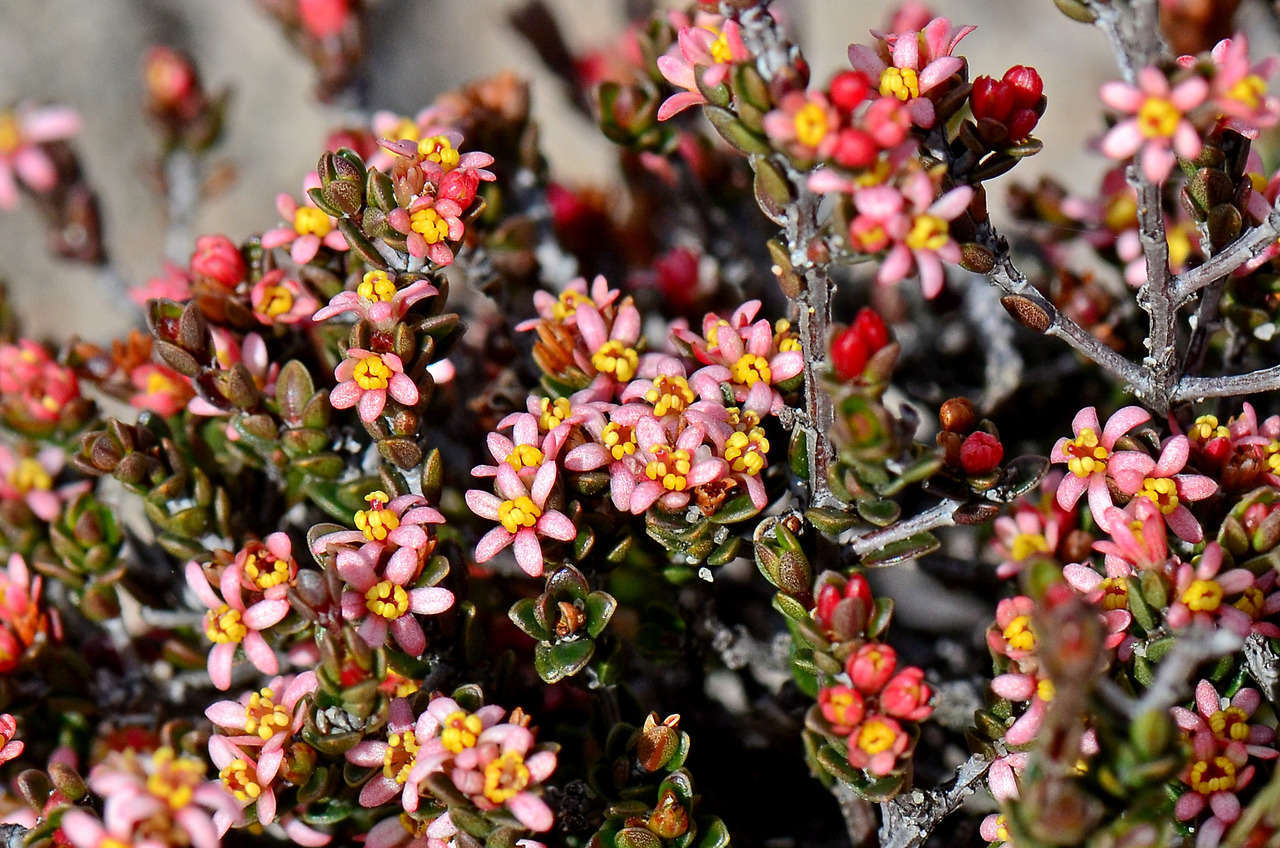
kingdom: Plantae
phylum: Tracheophyta
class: Magnoliopsida
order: Malpighiales
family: Picrodendraceae
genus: Pseudanthus
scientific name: Pseudanthus ovalifolius
